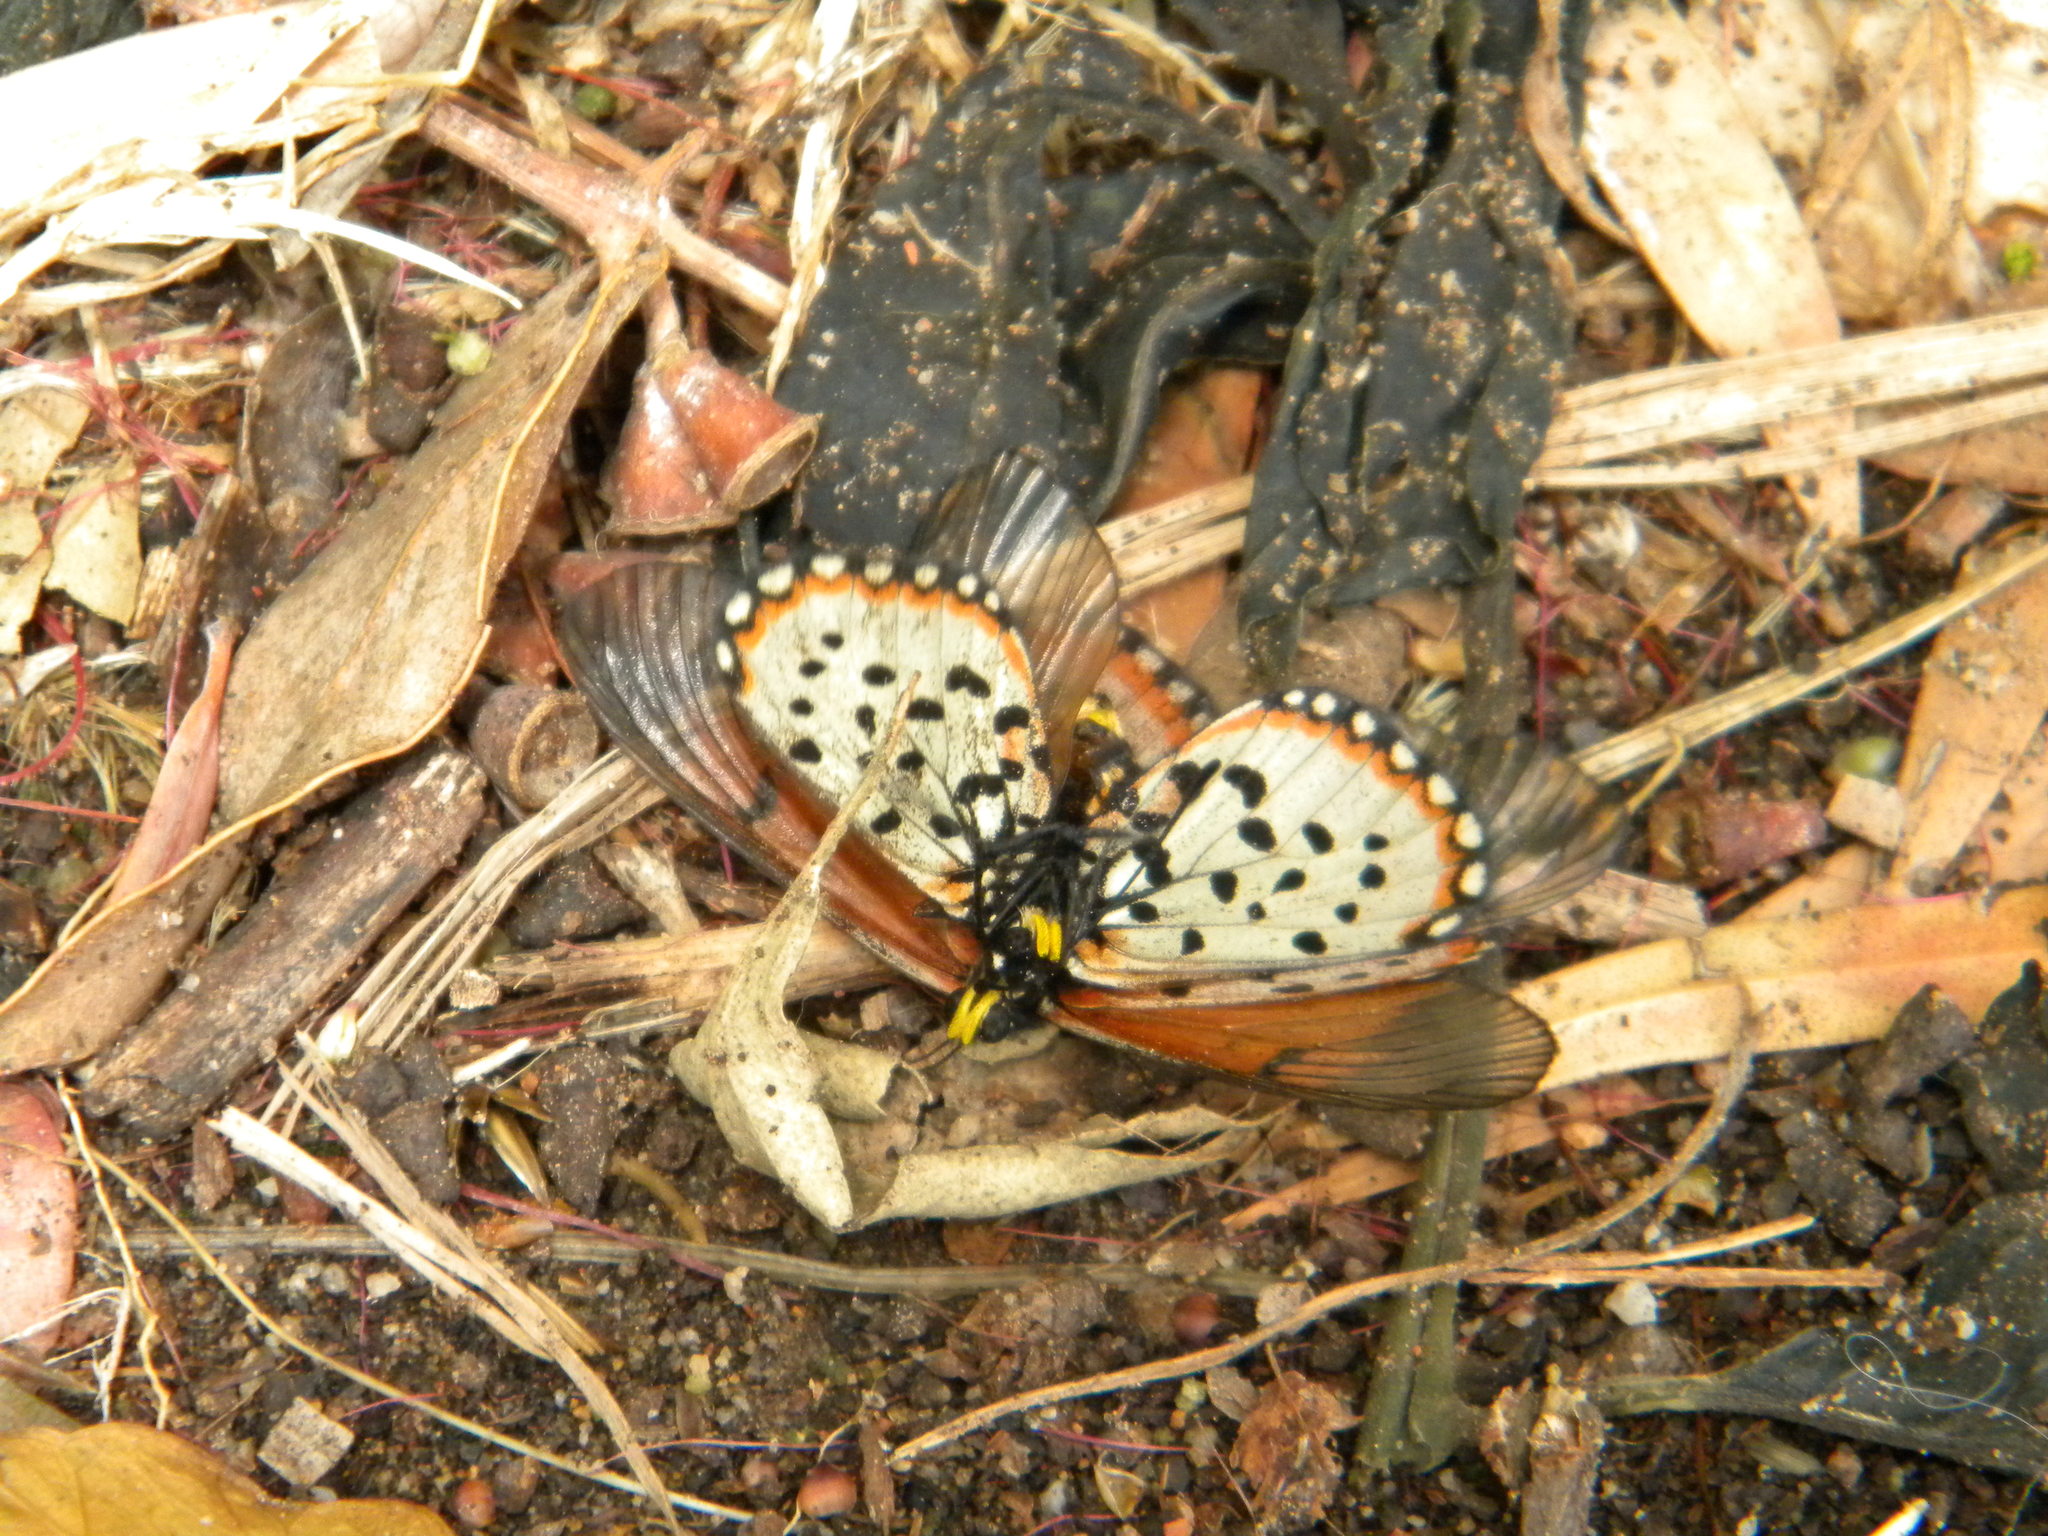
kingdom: Animalia
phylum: Arthropoda
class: Insecta
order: Lepidoptera
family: Nymphalidae
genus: Acraea
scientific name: Acraea horta
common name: Garden acraea
